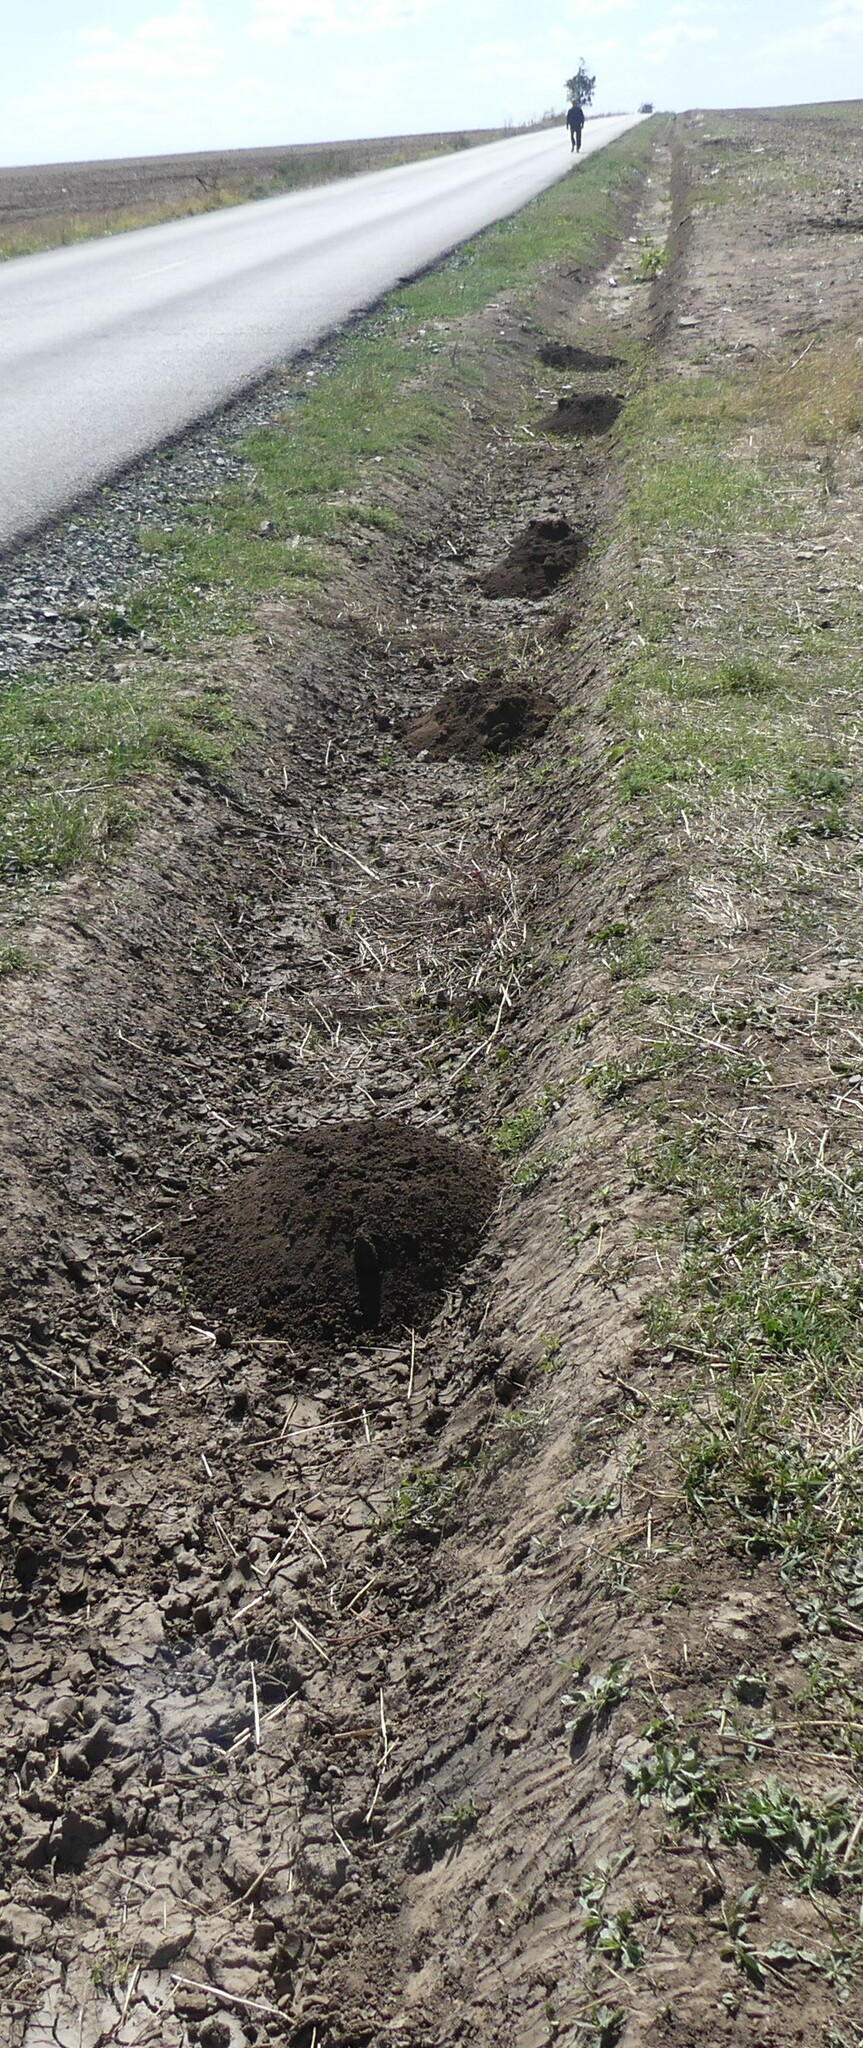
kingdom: Animalia
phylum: Chordata
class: Mammalia
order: Rodentia
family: Spalacidae
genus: Spalax
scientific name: Spalax leucodon
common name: Lesser blind mole rat
